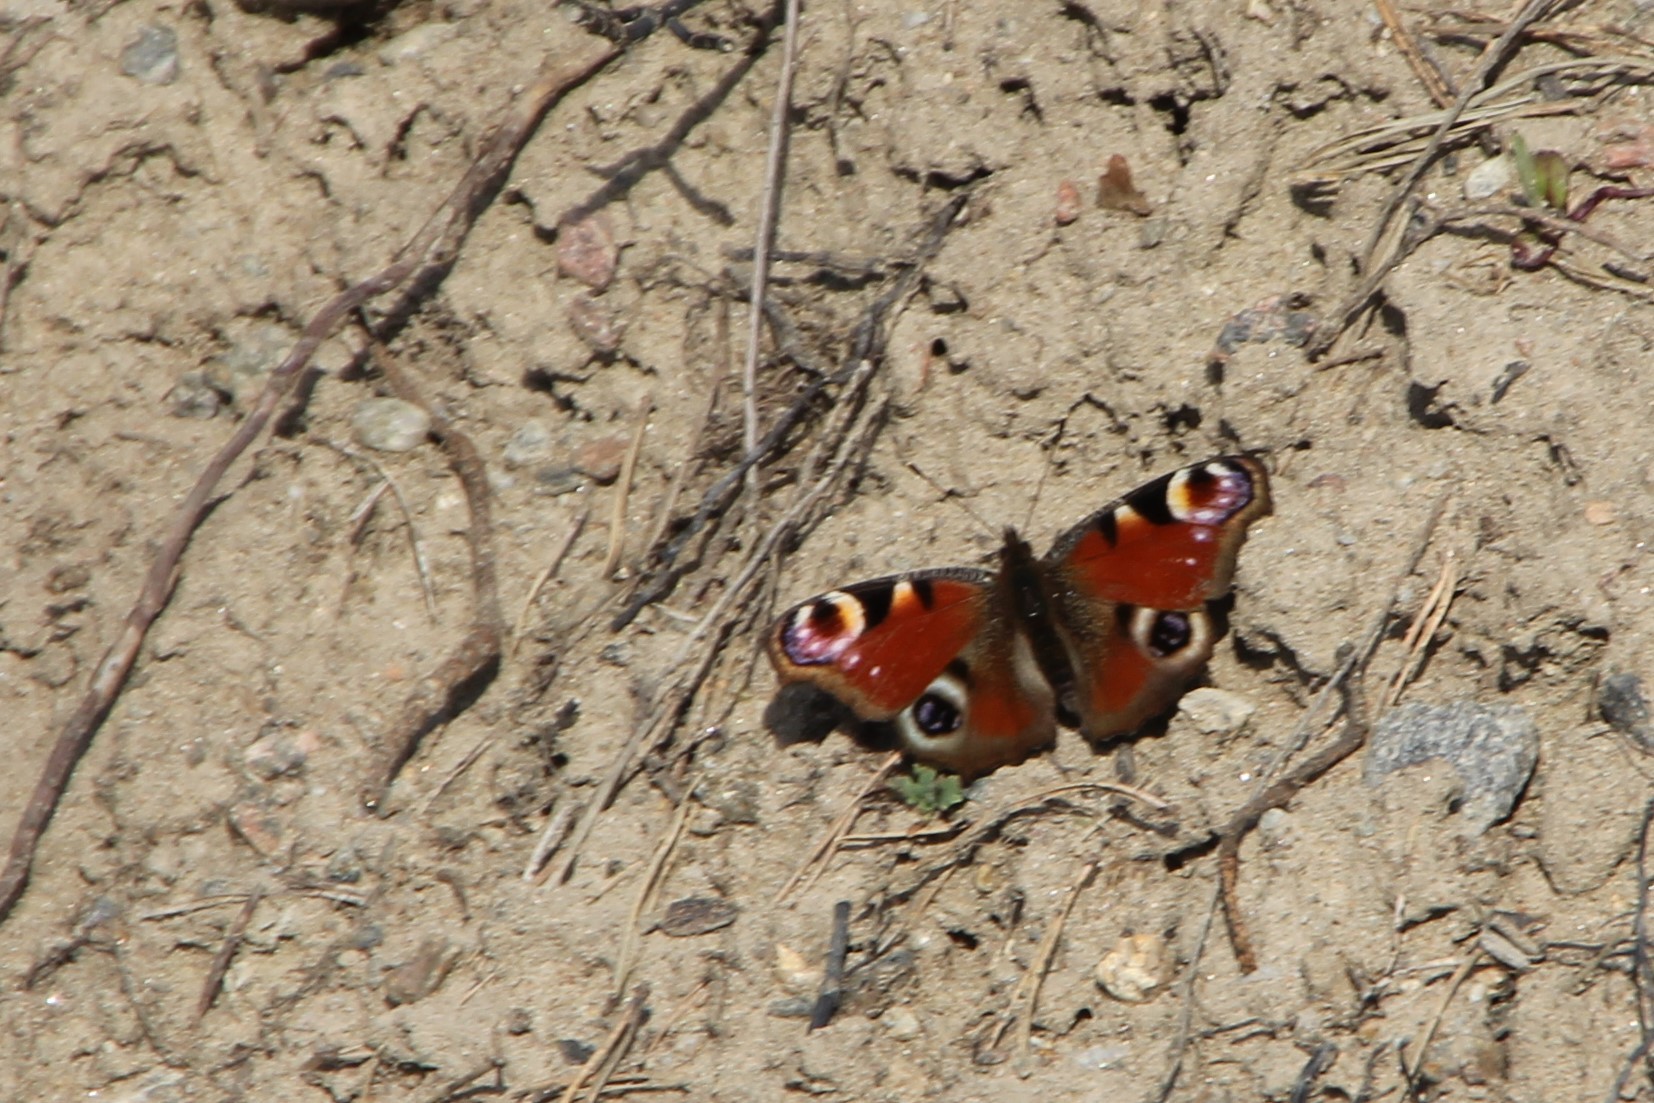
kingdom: Animalia
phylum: Arthropoda
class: Insecta
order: Lepidoptera
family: Nymphalidae
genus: Aglais
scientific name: Aglais io
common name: Peacock
